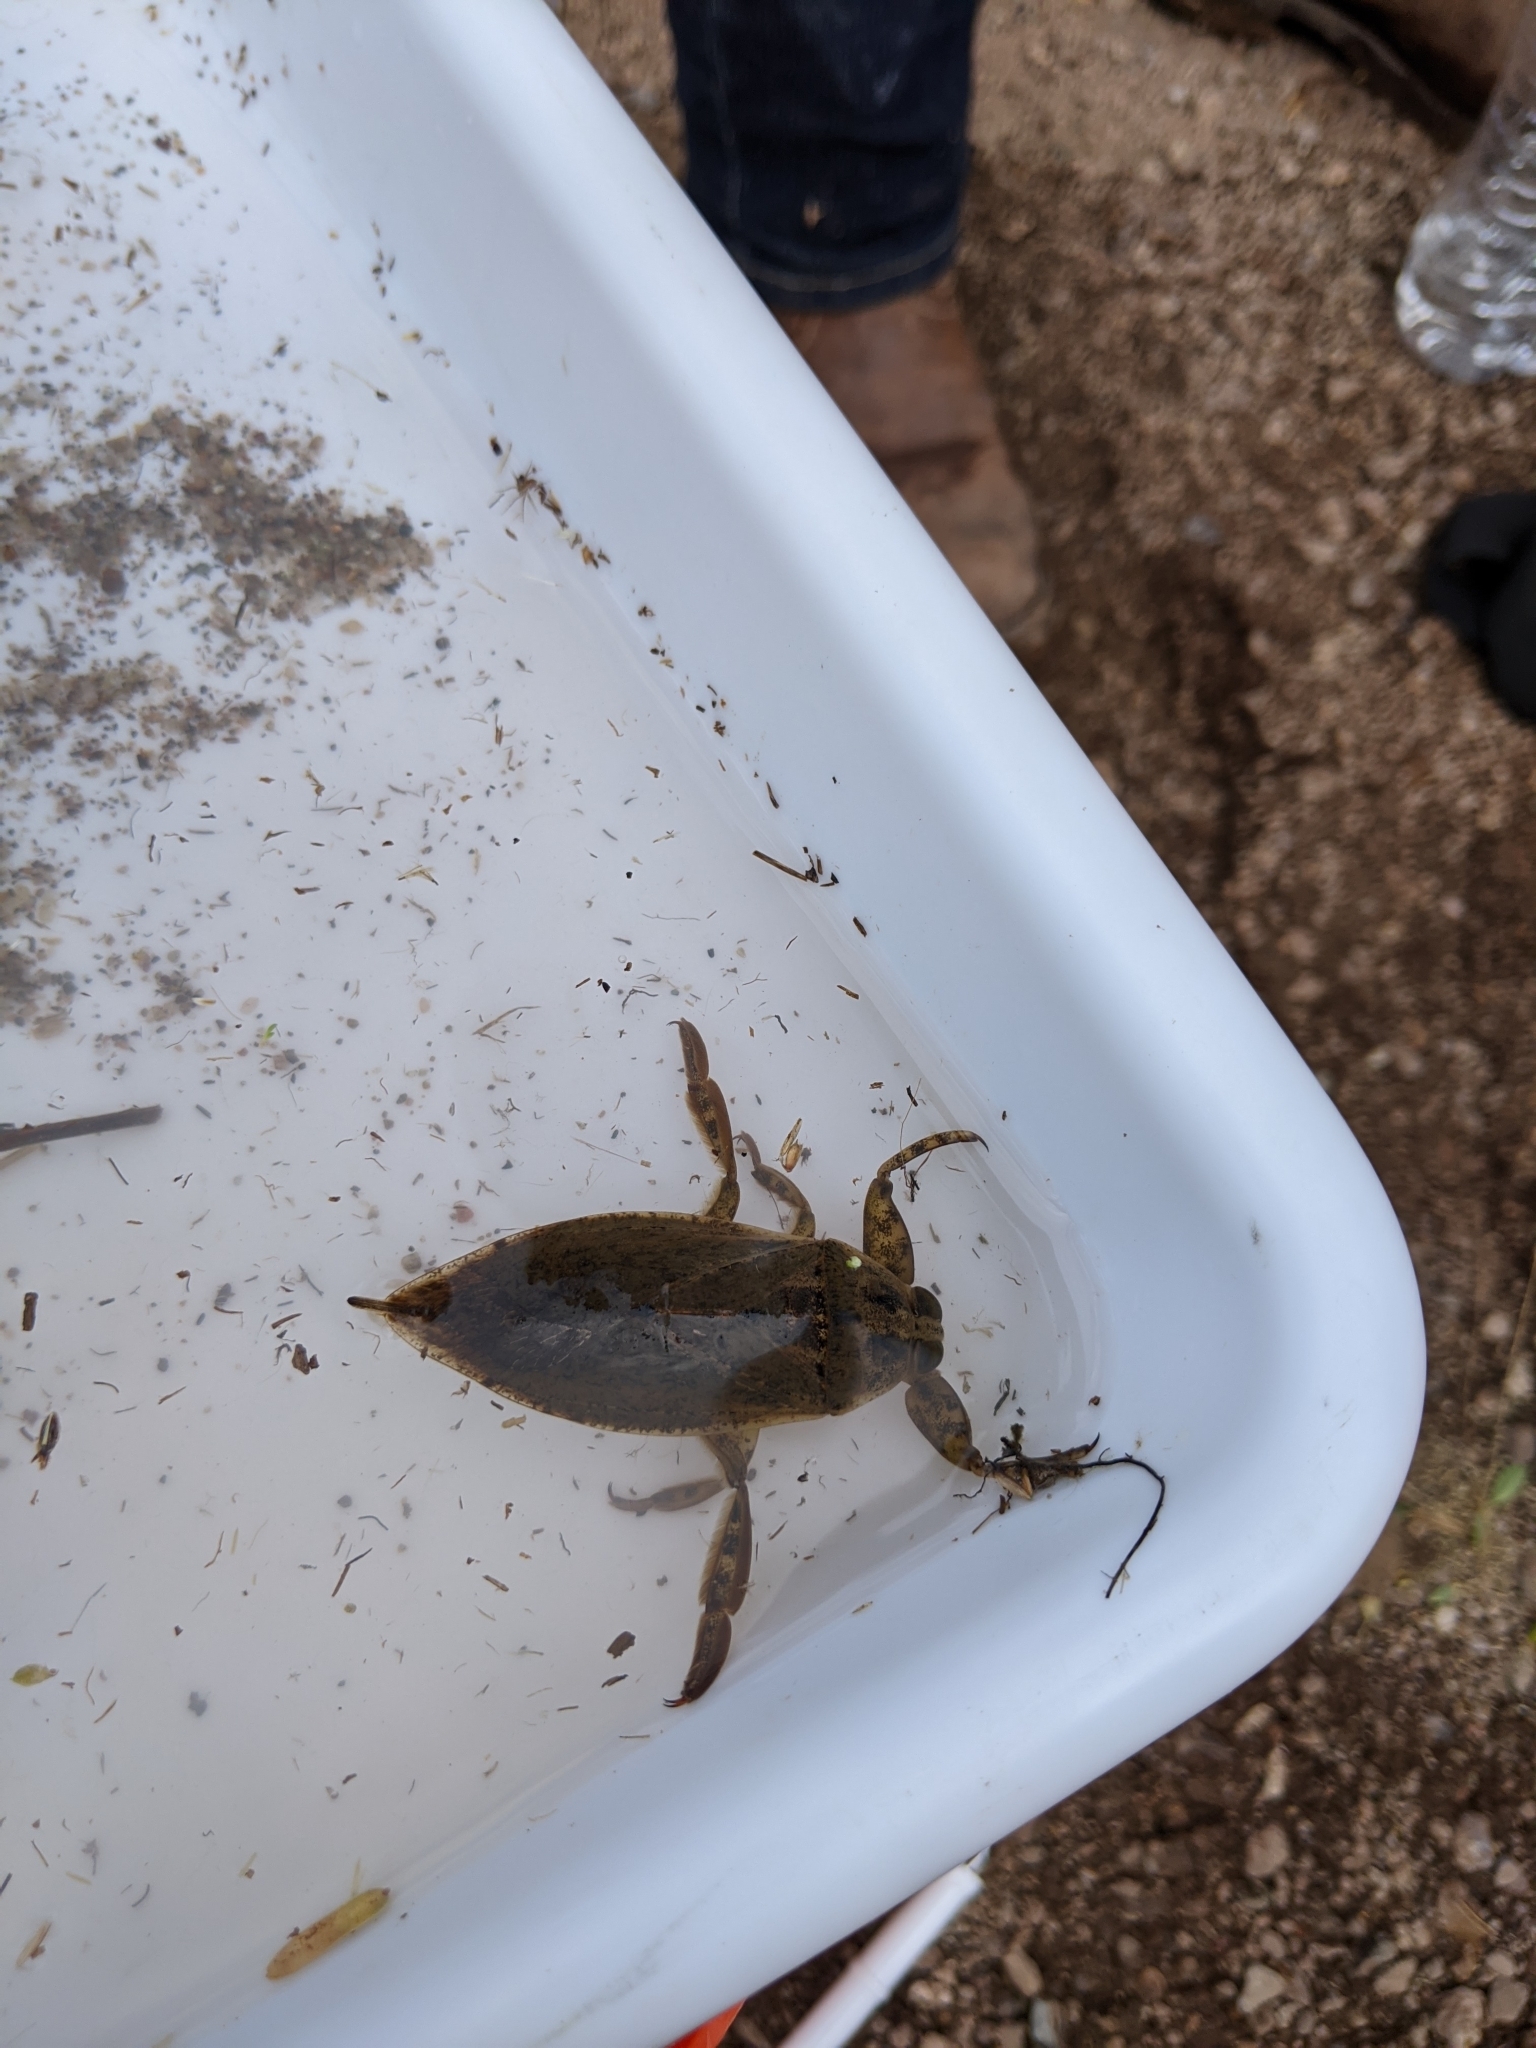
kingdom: Animalia
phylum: Arthropoda
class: Insecta
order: Hemiptera
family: Belostomatidae
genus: Lethocerus
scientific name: Lethocerus medius
